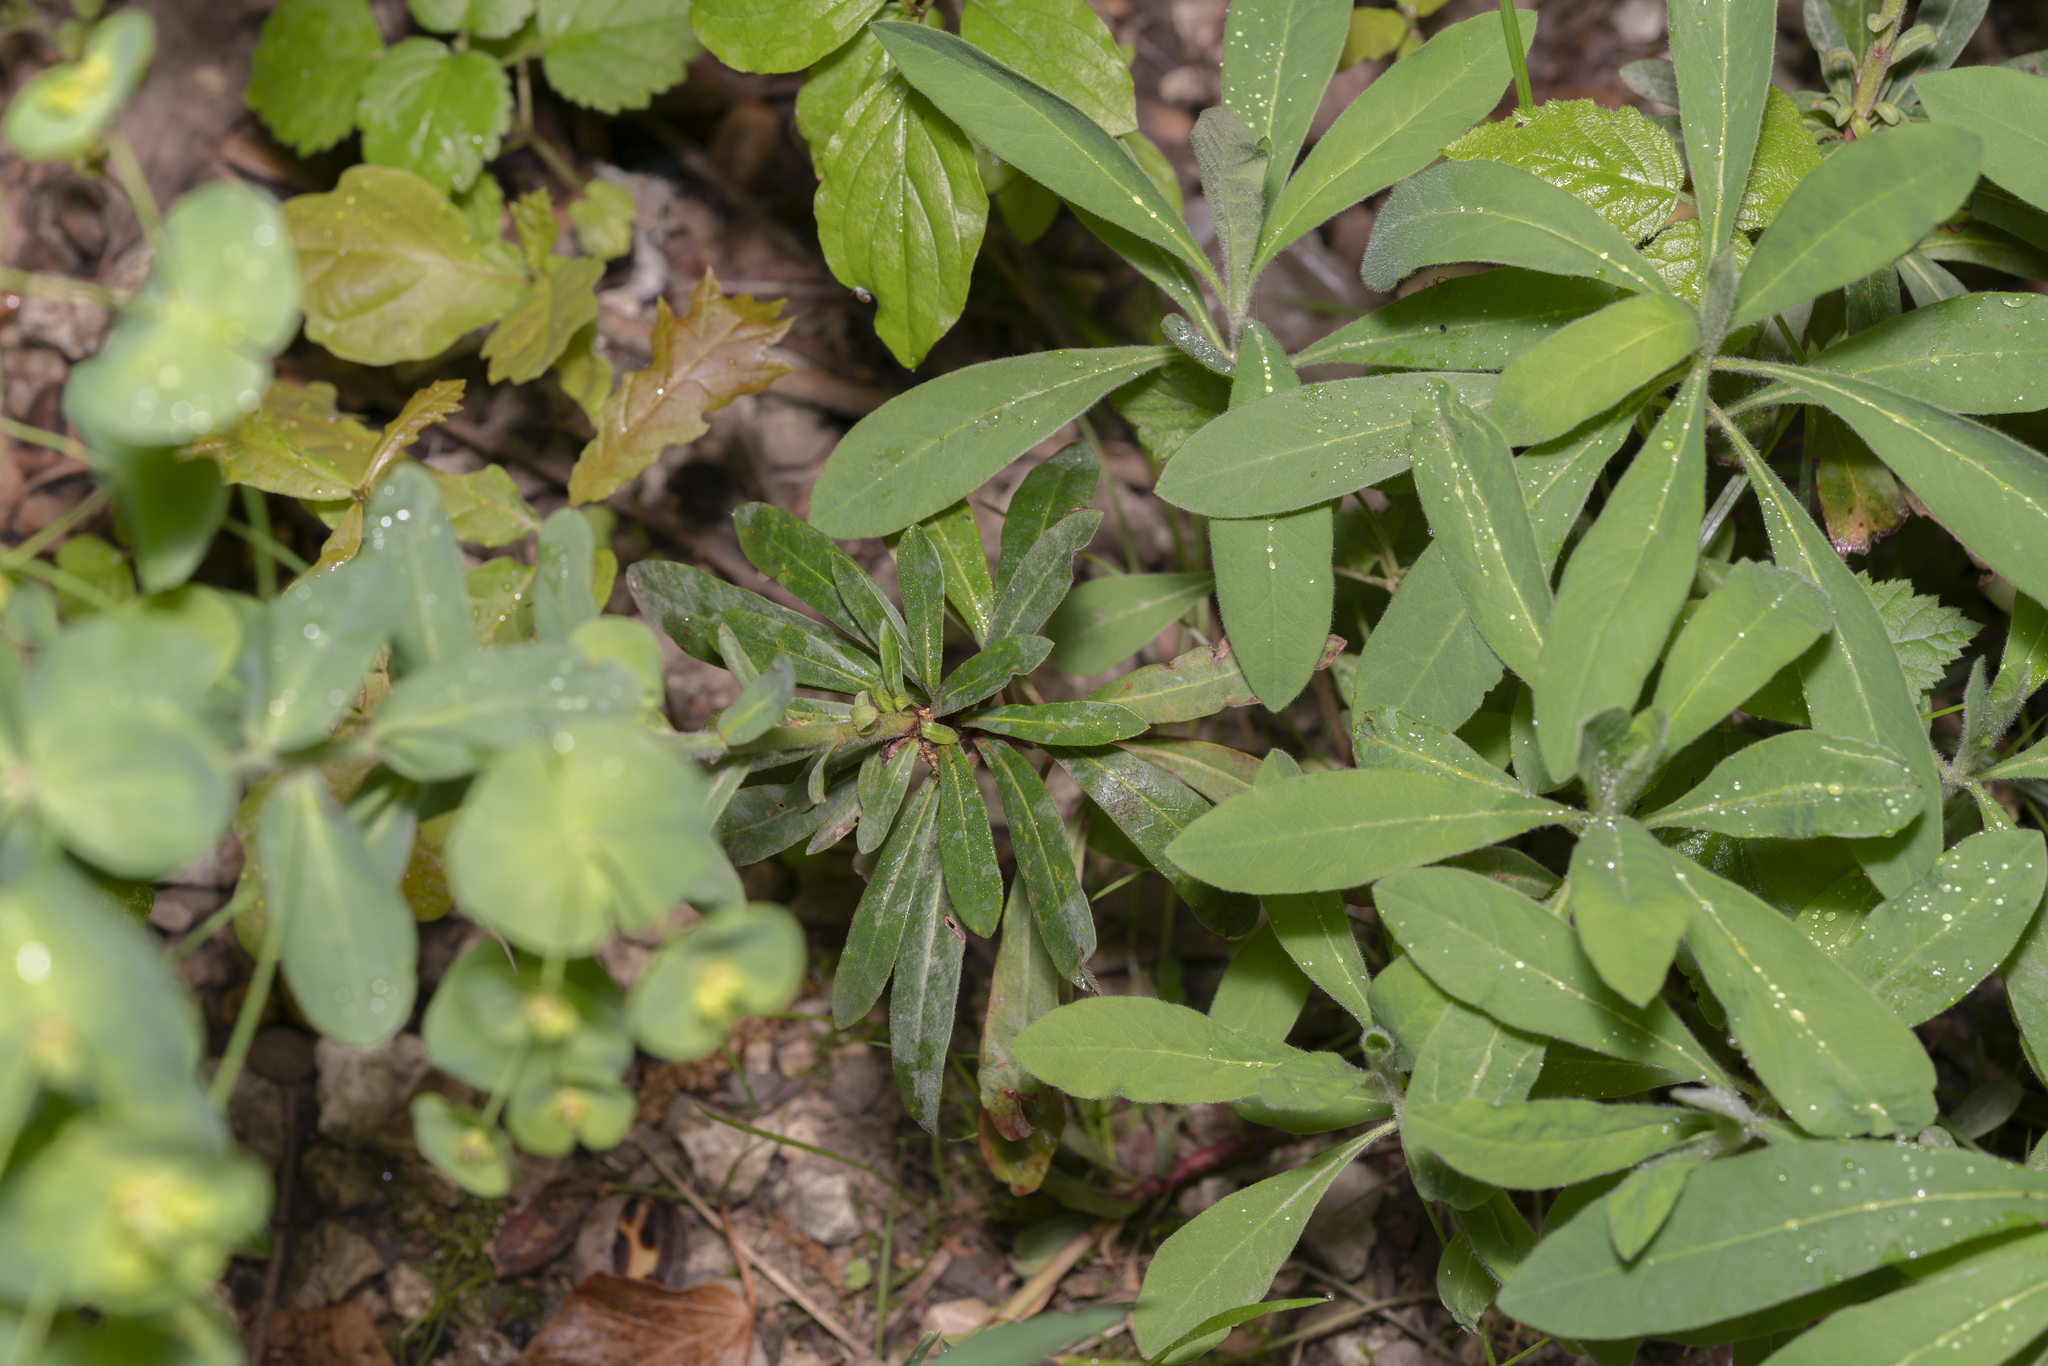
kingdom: Plantae
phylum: Tracheophyta
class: Magnoliopsida
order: Malpighiales
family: Euphorbiaceae
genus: Euphorbia
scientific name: Euphorbia amygdaloides
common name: Wood spurge
